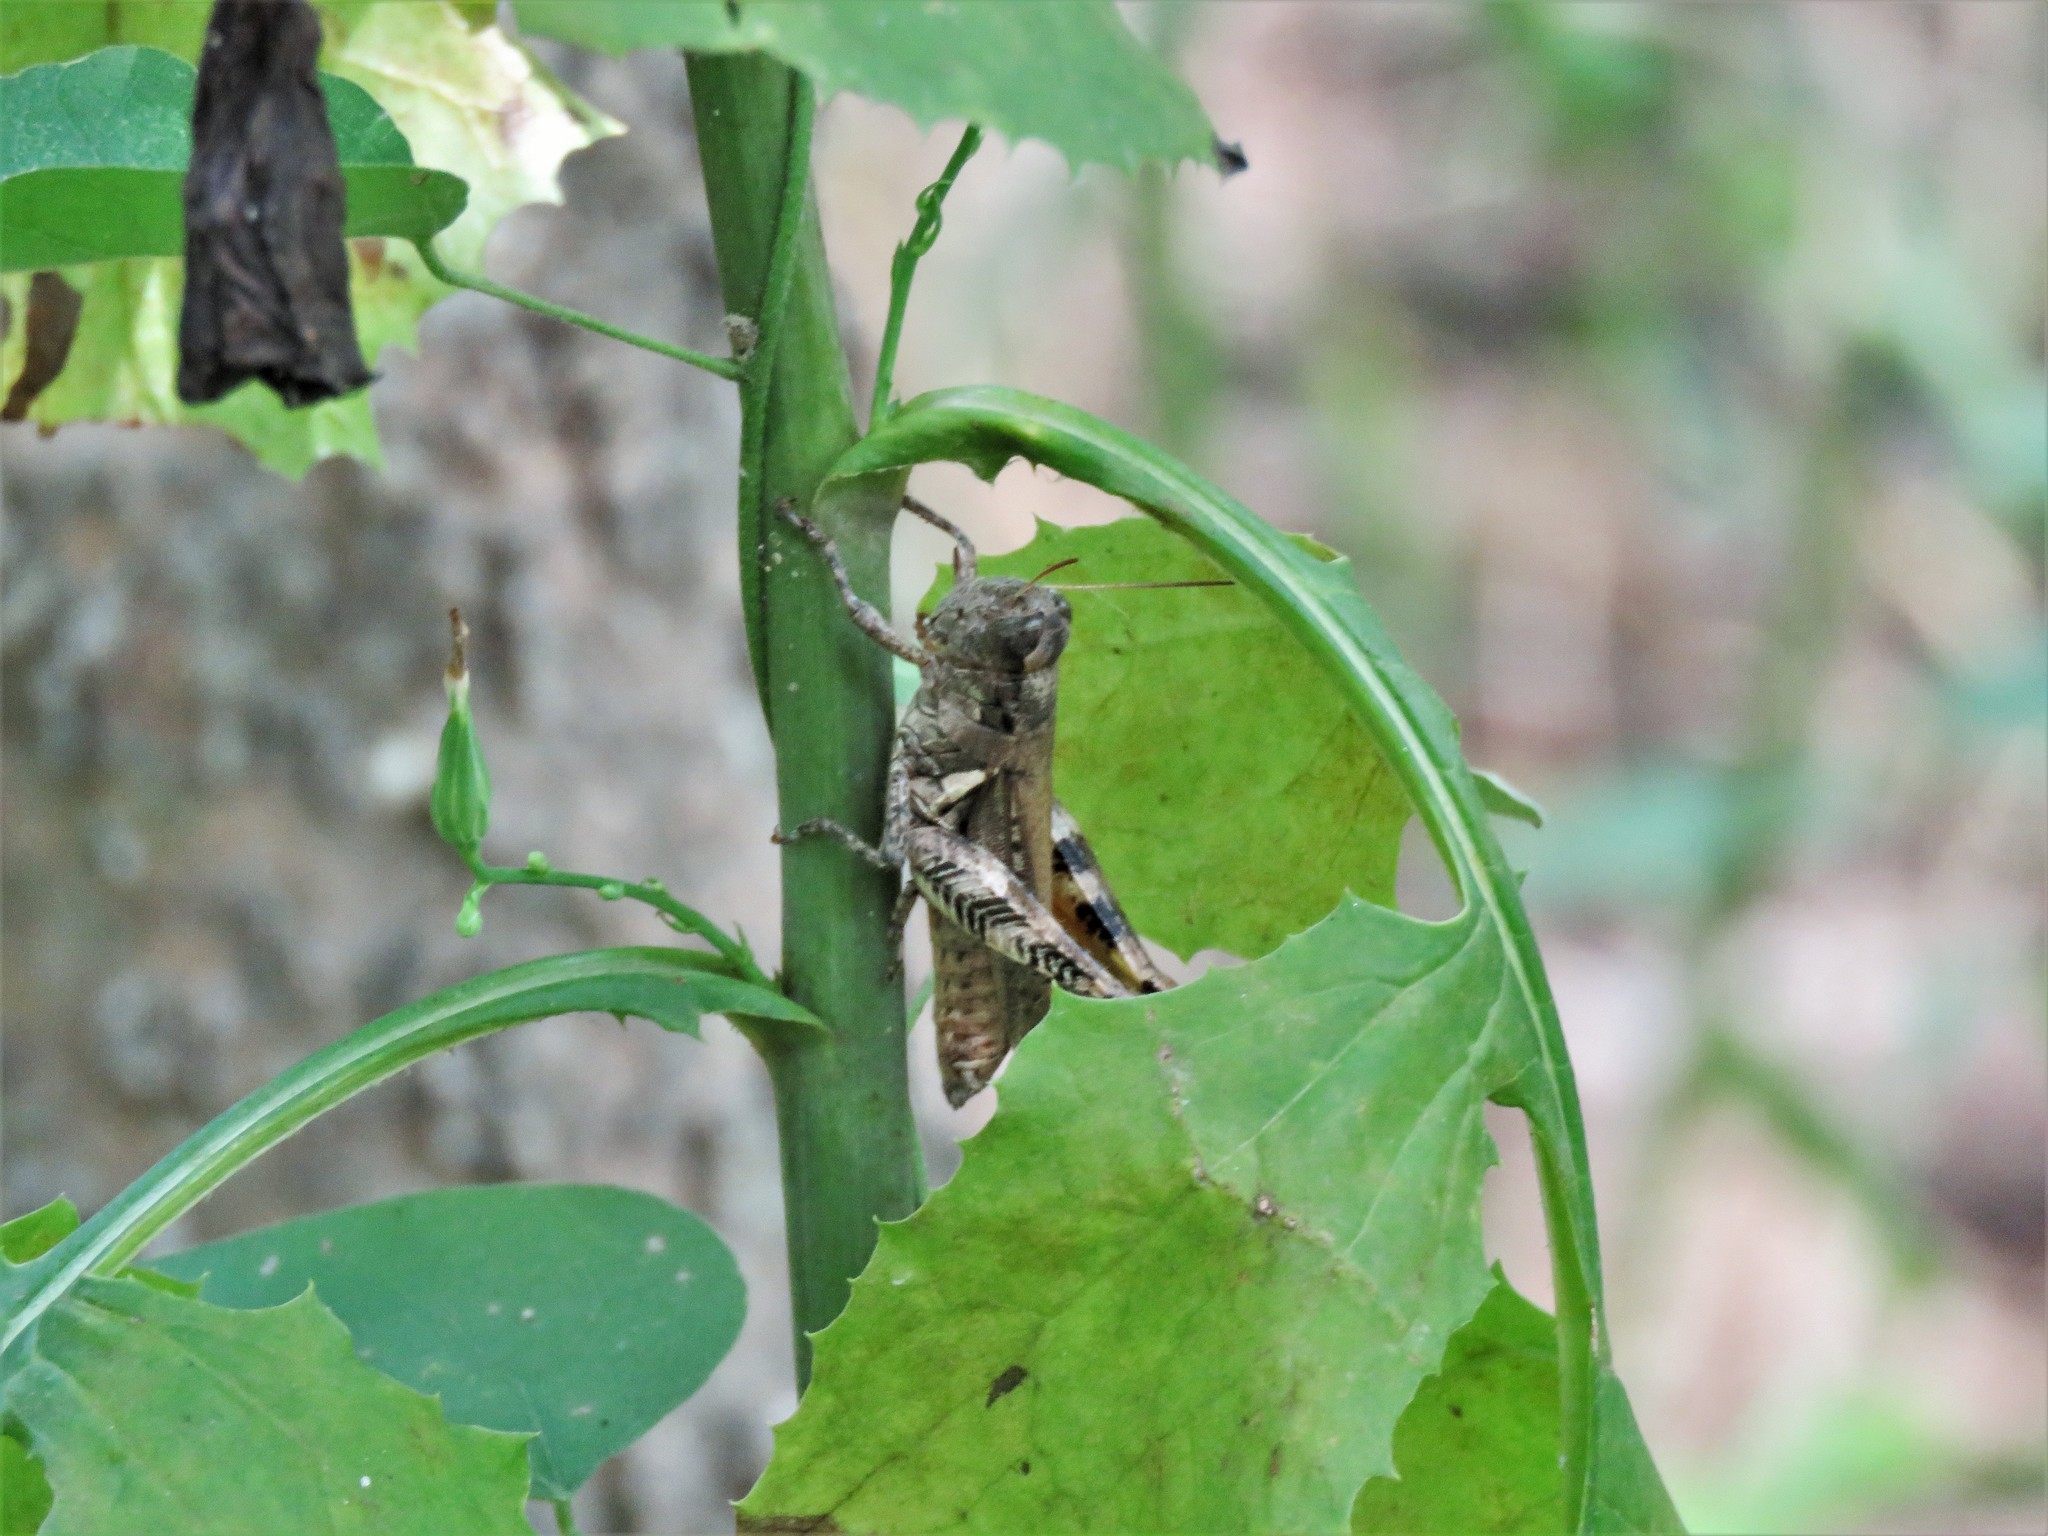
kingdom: Animalia
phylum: Arthropoda
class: Insecta
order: Orthoptera
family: Acrididae
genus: Melanoplus
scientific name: Melanoplus ponderosus
